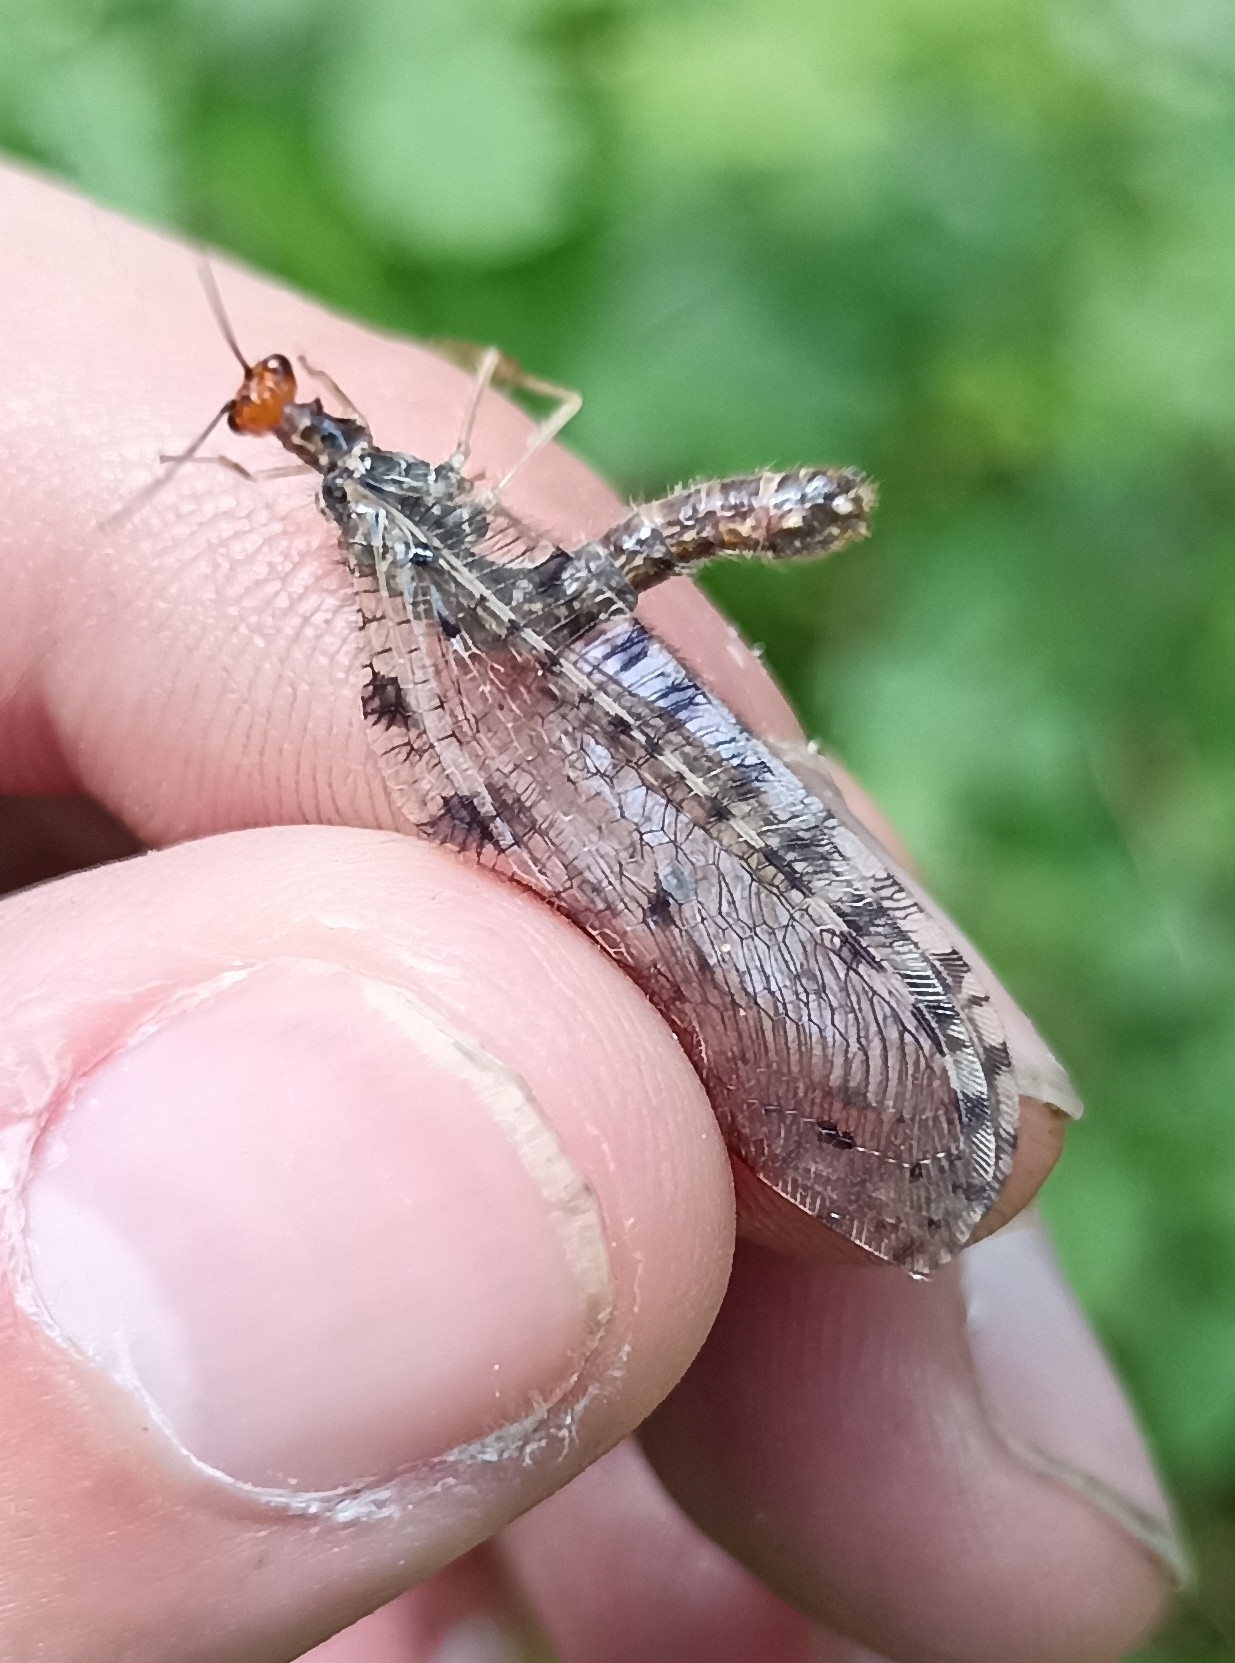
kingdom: Animalia
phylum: Arthropoda
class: Insecta
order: Neuroptera
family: Osmylidae
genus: Osmylus
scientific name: Osmylus fulvicephalus
